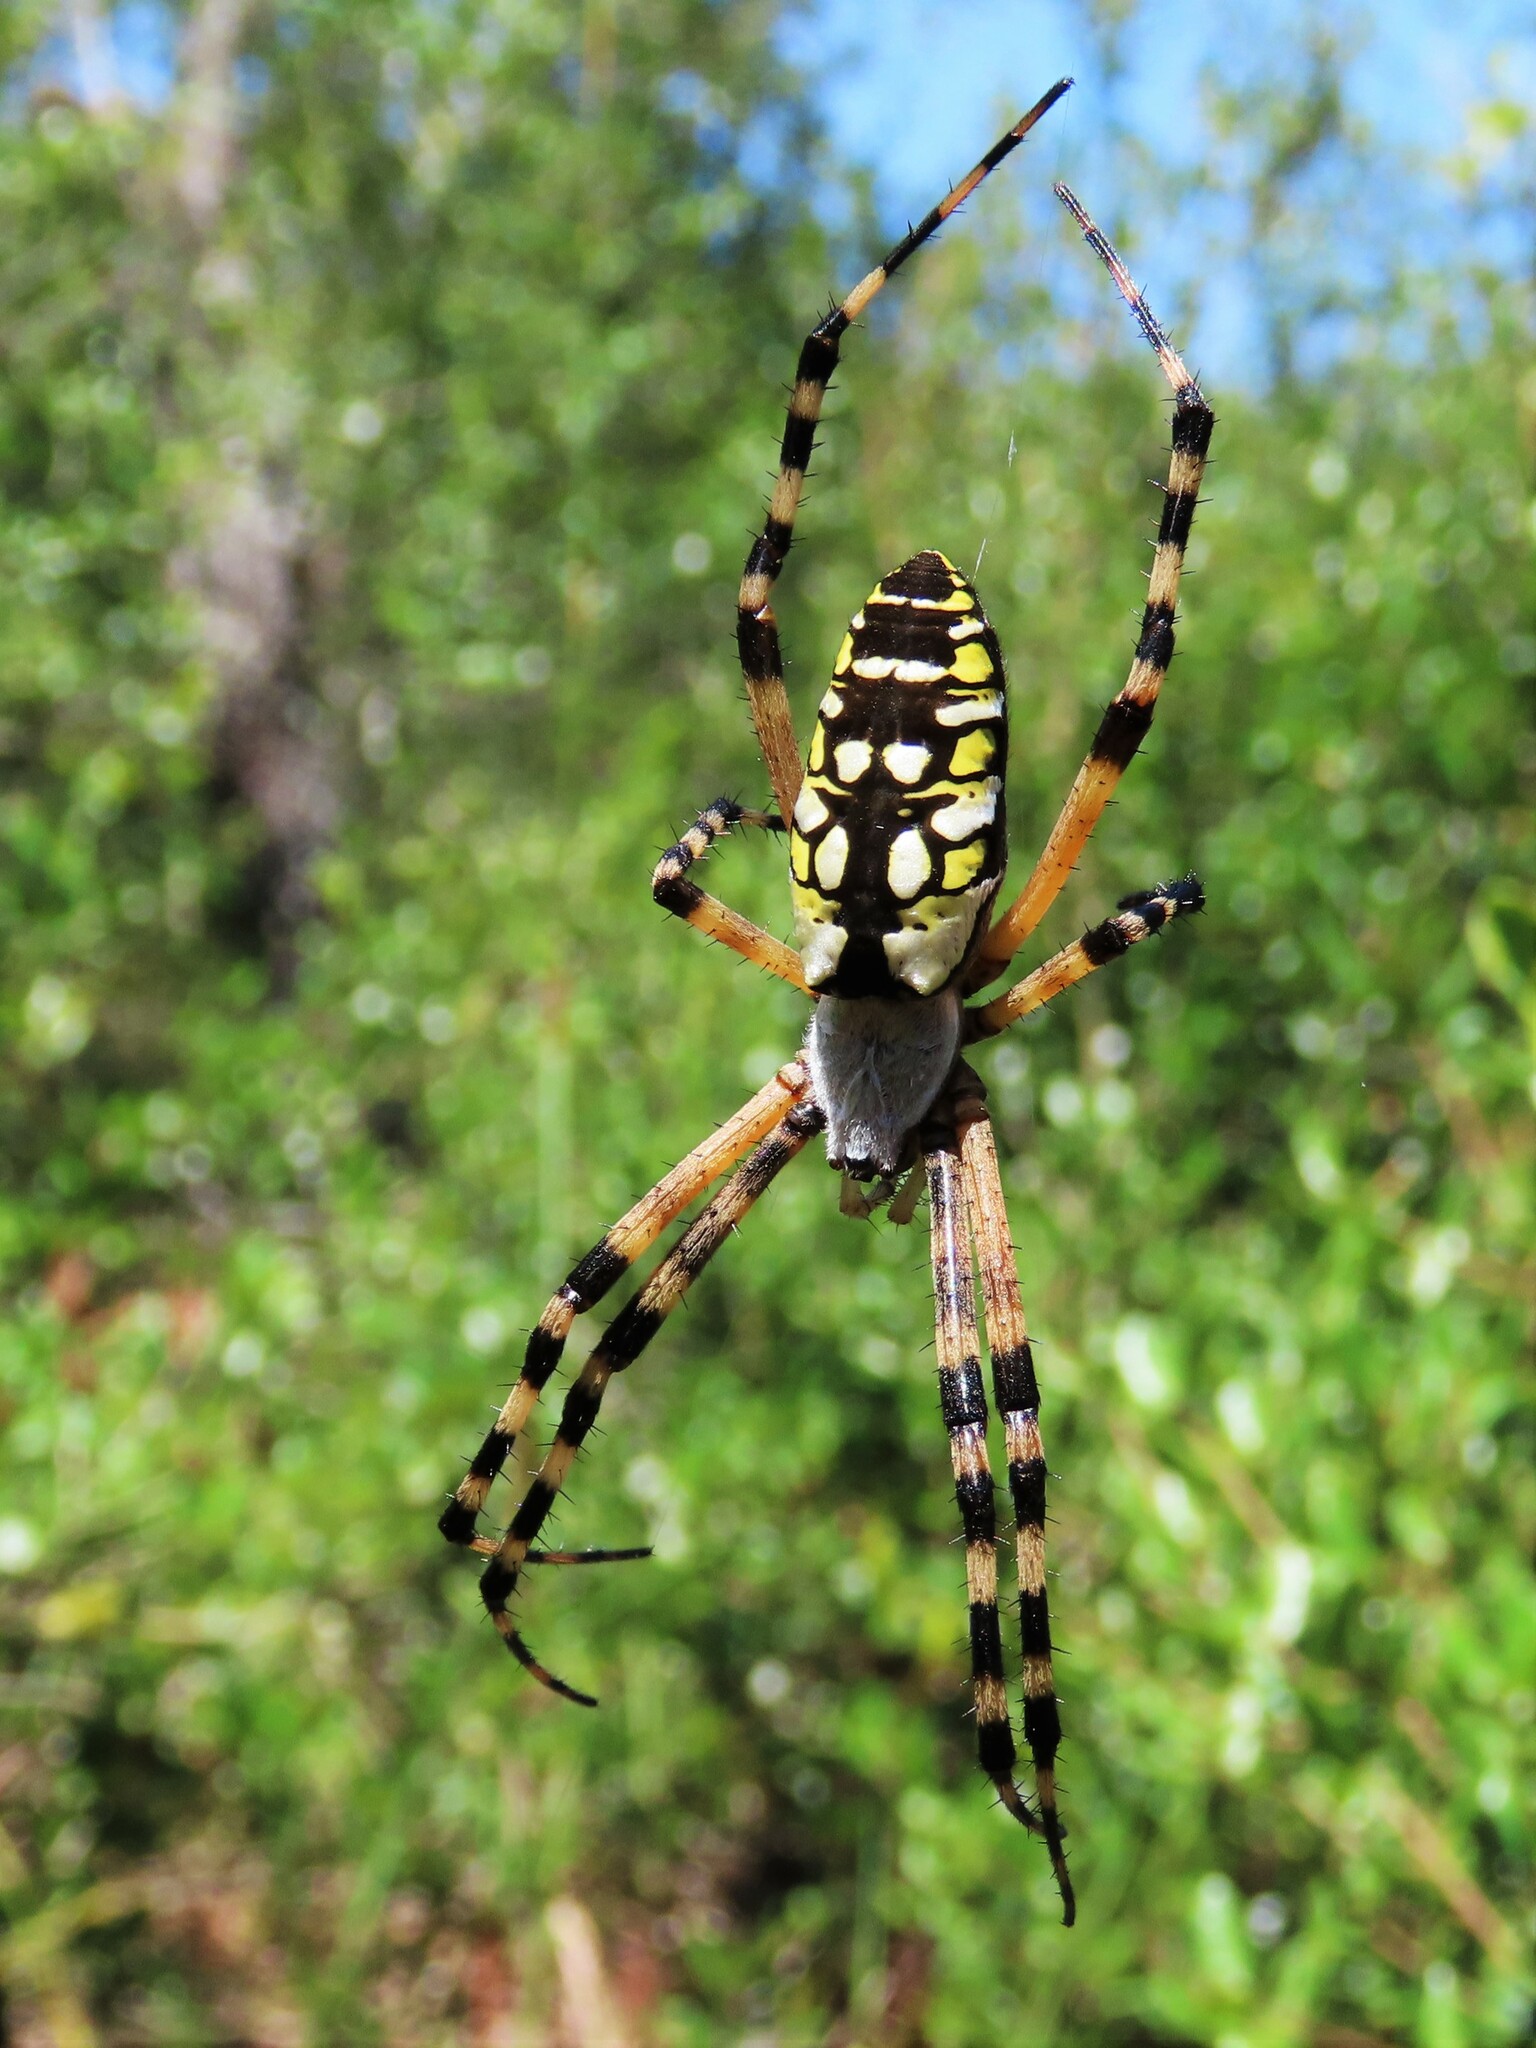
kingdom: Animalia
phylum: Arthropoda
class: Arachnida
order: Araneae
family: Araneidae
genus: Argiope
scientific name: Argiope aurantia
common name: Orb weavers
